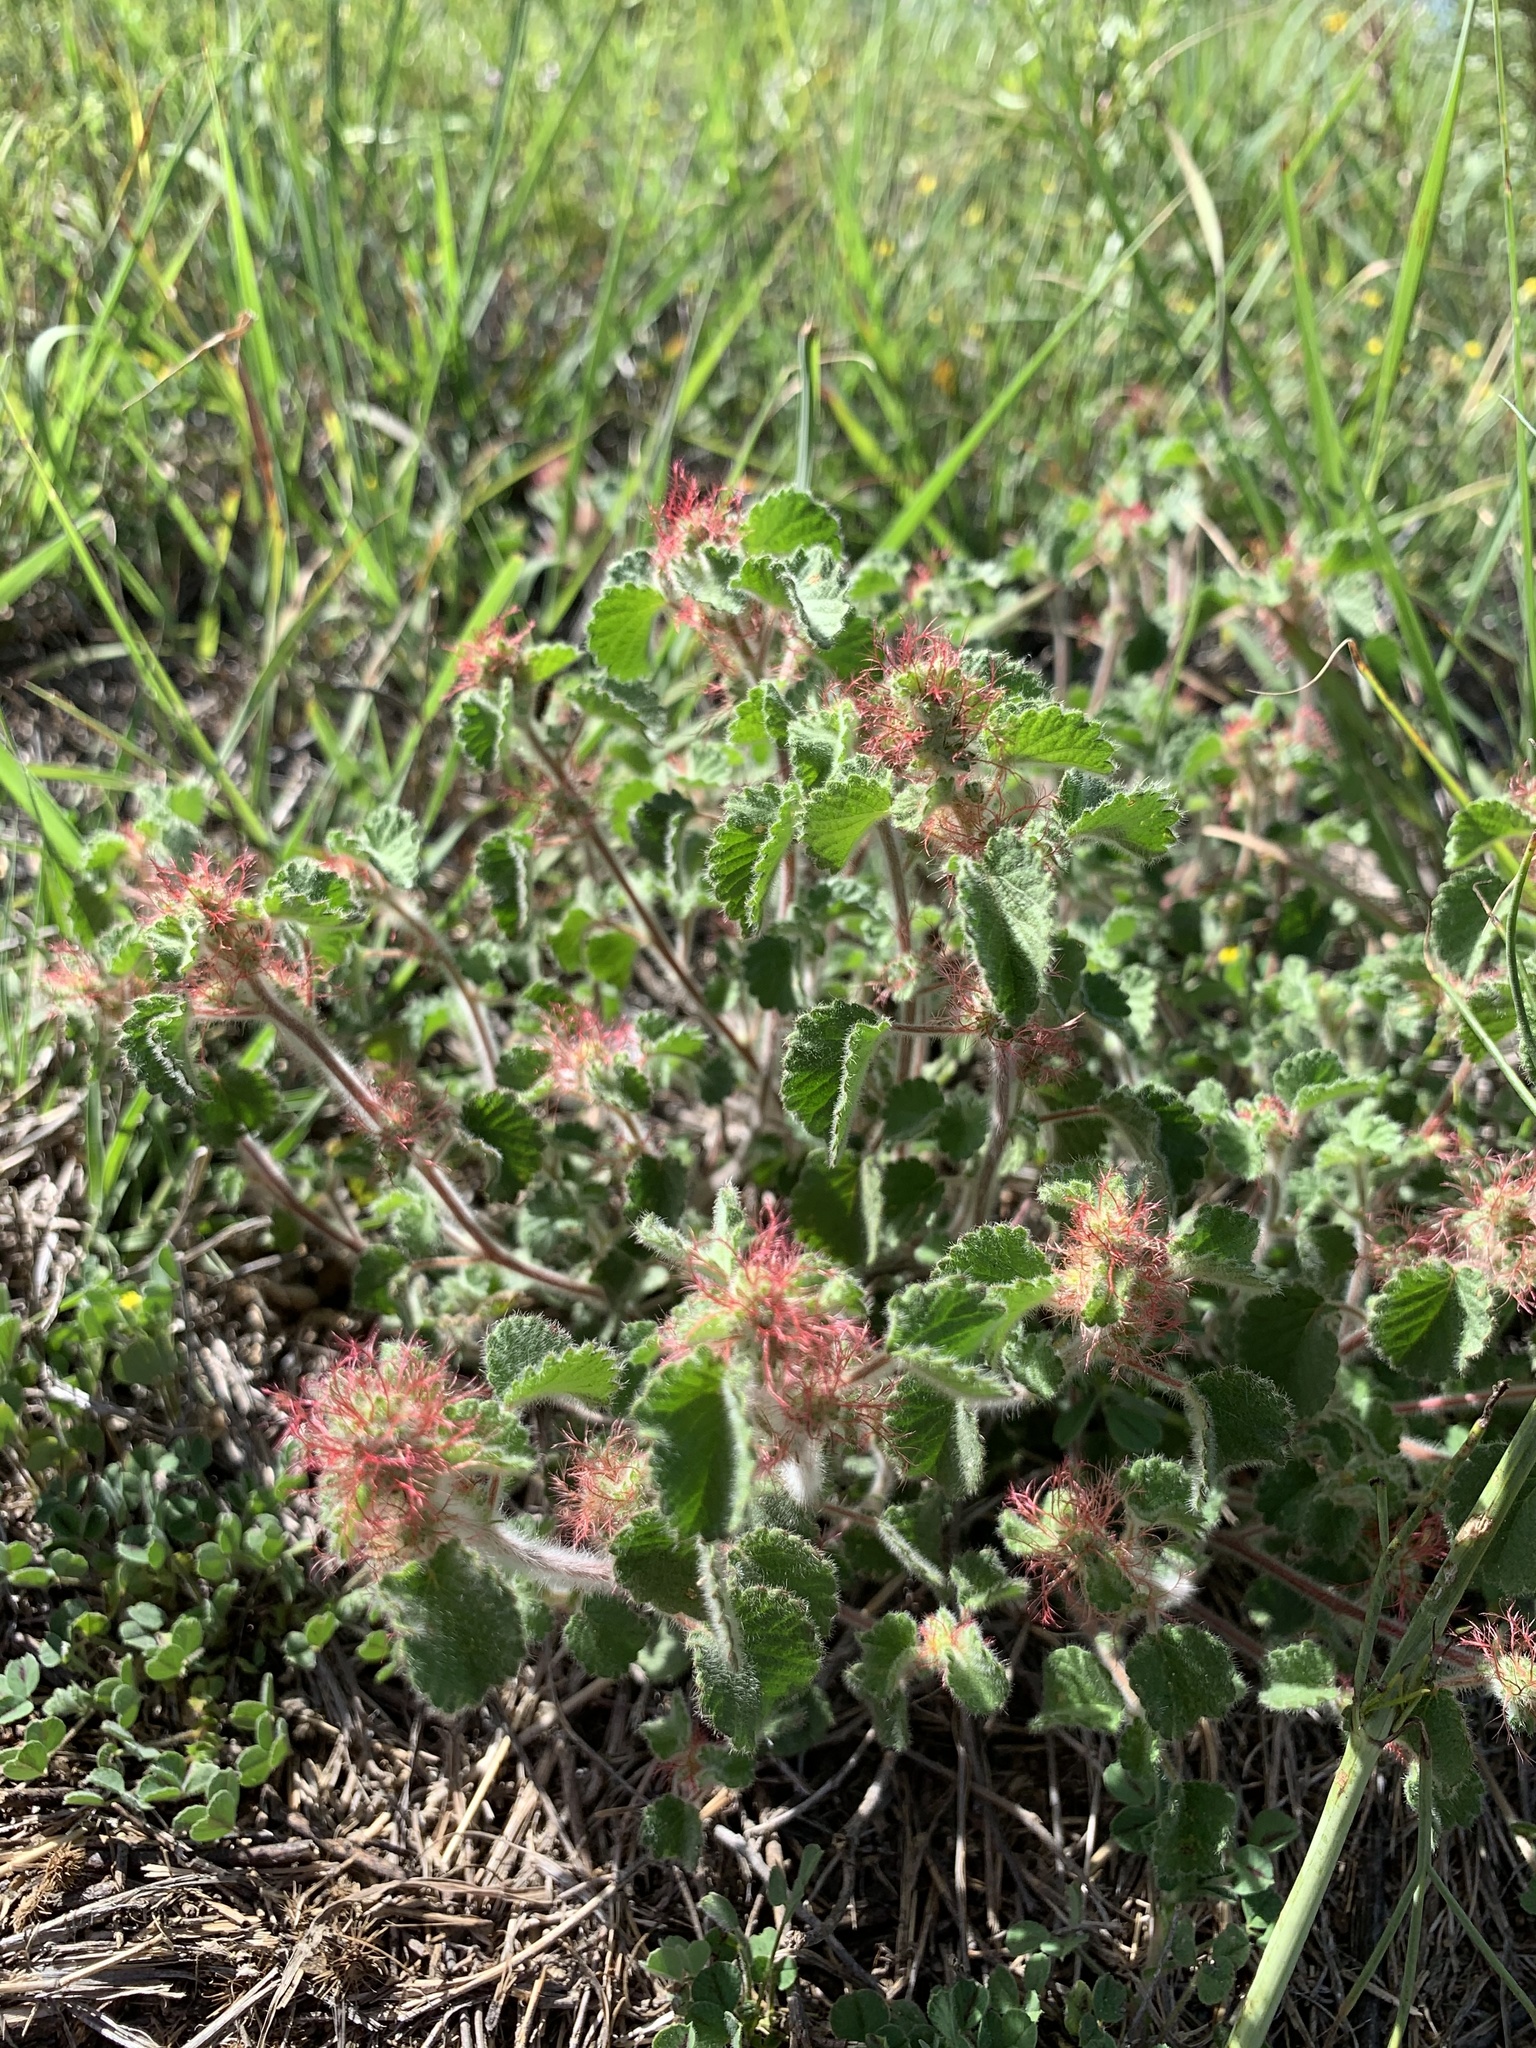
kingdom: Plantae
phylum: Tracheophyta
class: Magnoliopsida
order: Malpighiales
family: Euphorbiaceae
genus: Acalypha
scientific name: Acalypha monostachya
